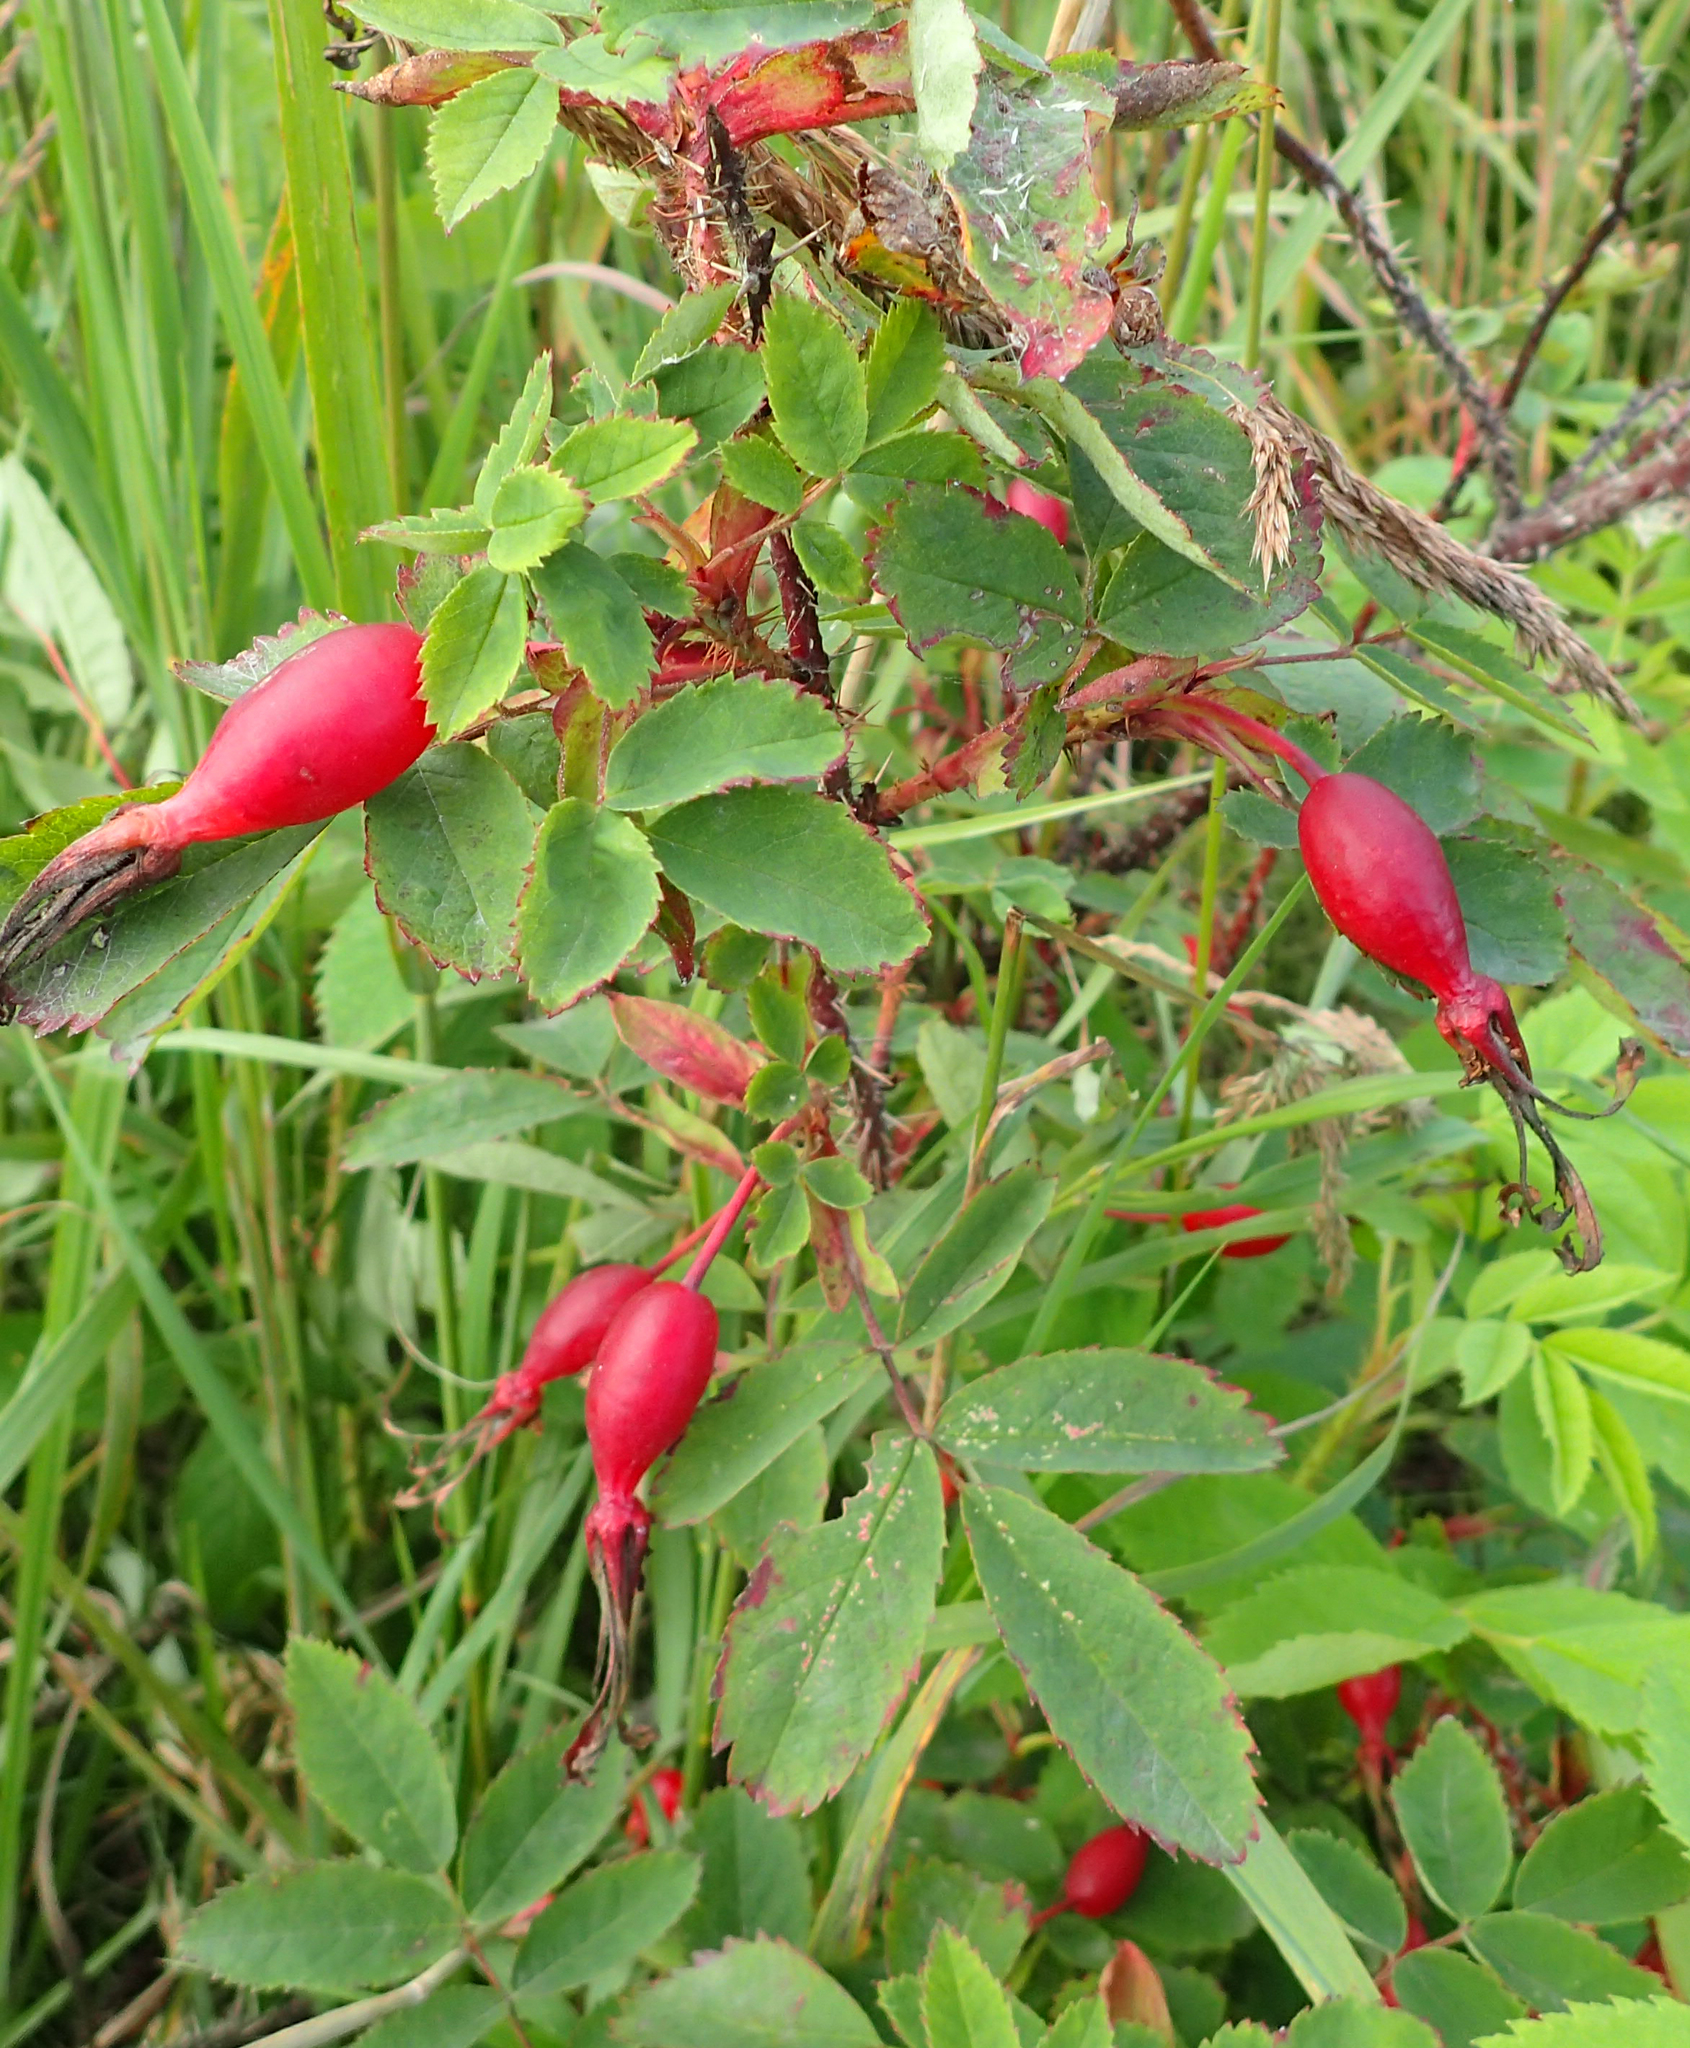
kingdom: Plantae
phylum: Tracheophyta
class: Magnoliopsida
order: Rosales
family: Rosaceae
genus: Rosa
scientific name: Rosa acicularis
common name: Prickly rose
